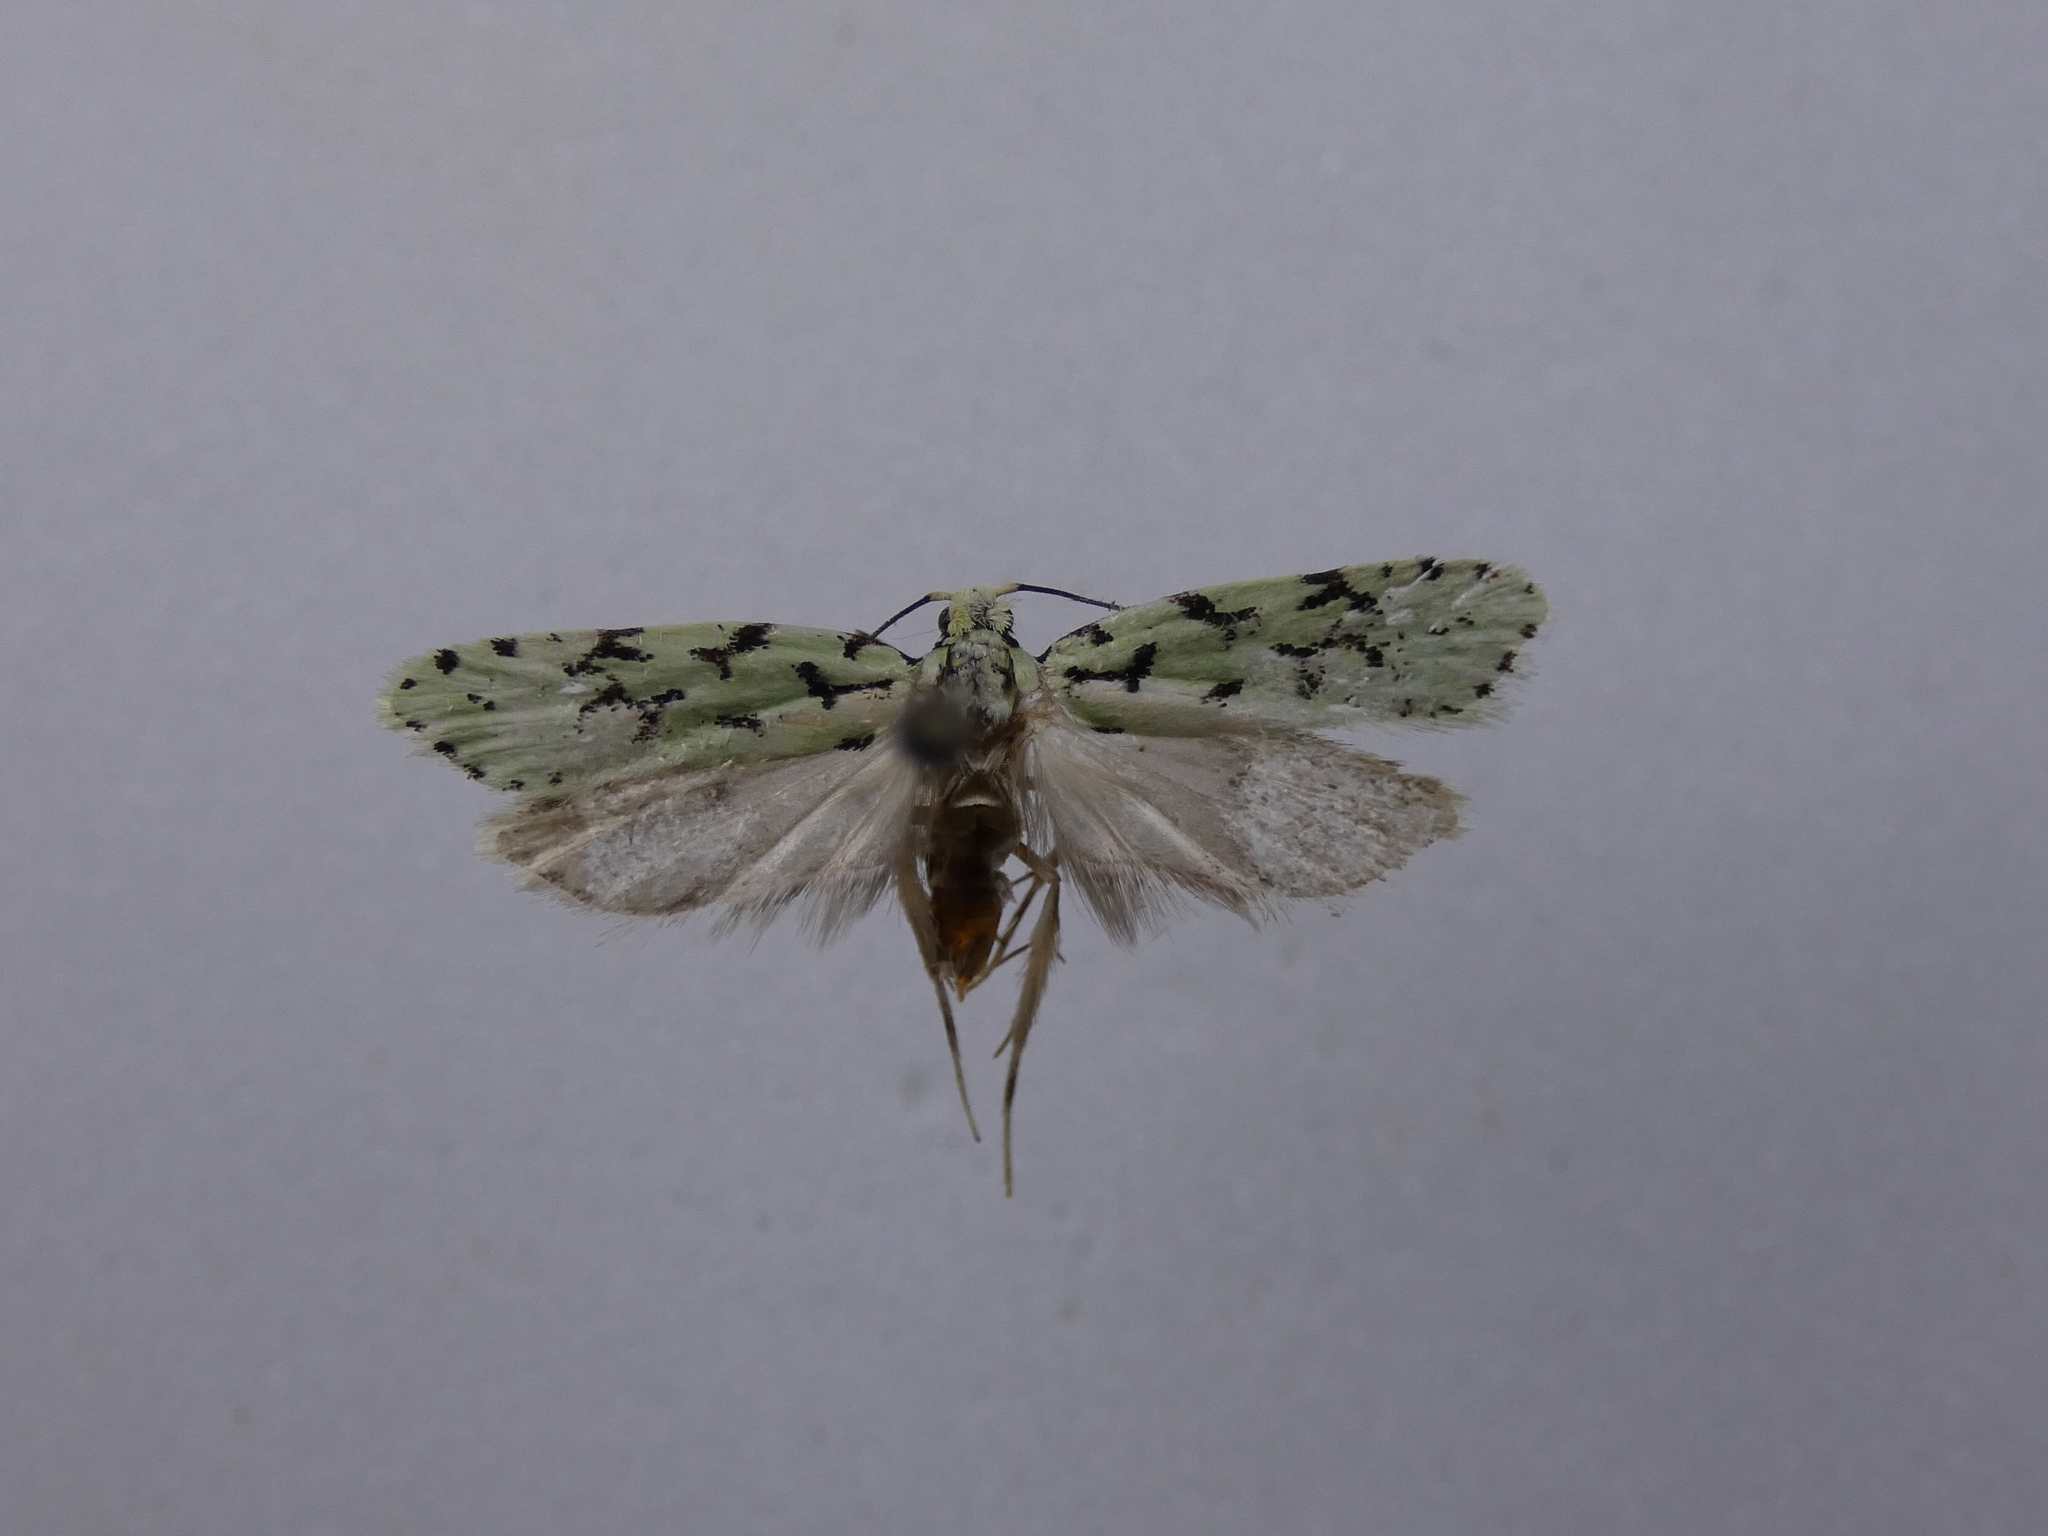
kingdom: Animalia
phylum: Arthropoda
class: Insecta
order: Lepidoptera
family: Oecophoridae
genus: Izatha
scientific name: Izatha huttoni
